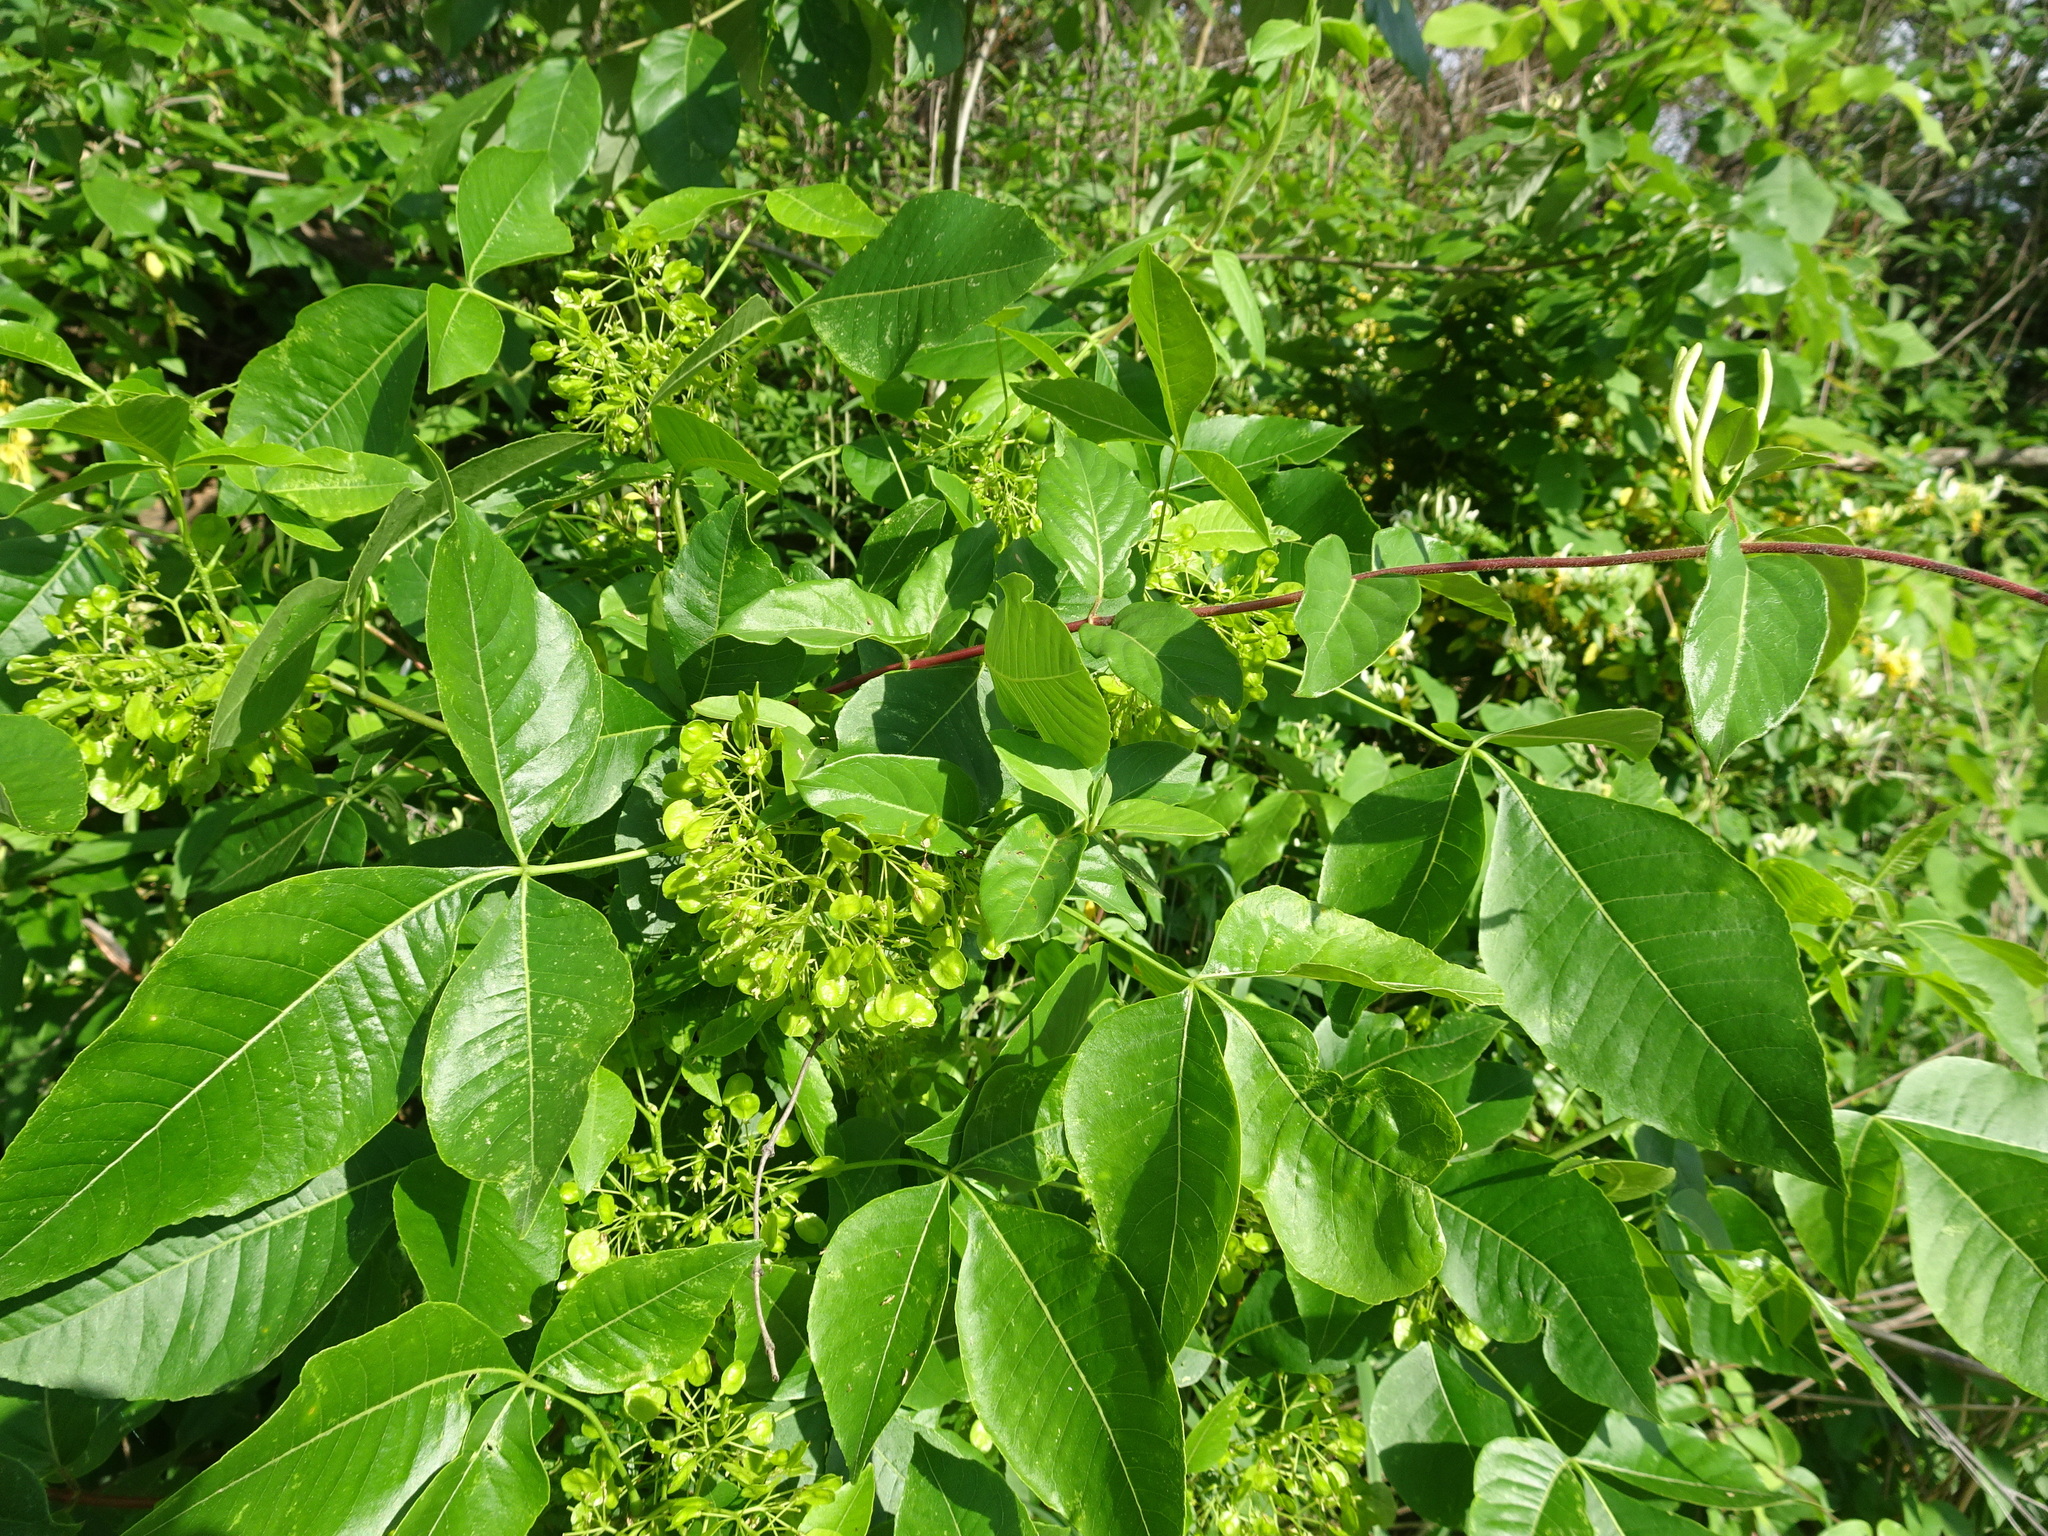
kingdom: Plantae
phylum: Tracheophyta
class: Magnoliopsida
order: Sapindales
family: Rutaceae
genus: Ptelea
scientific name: Ptelea trifoliata
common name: Common hop-tree
